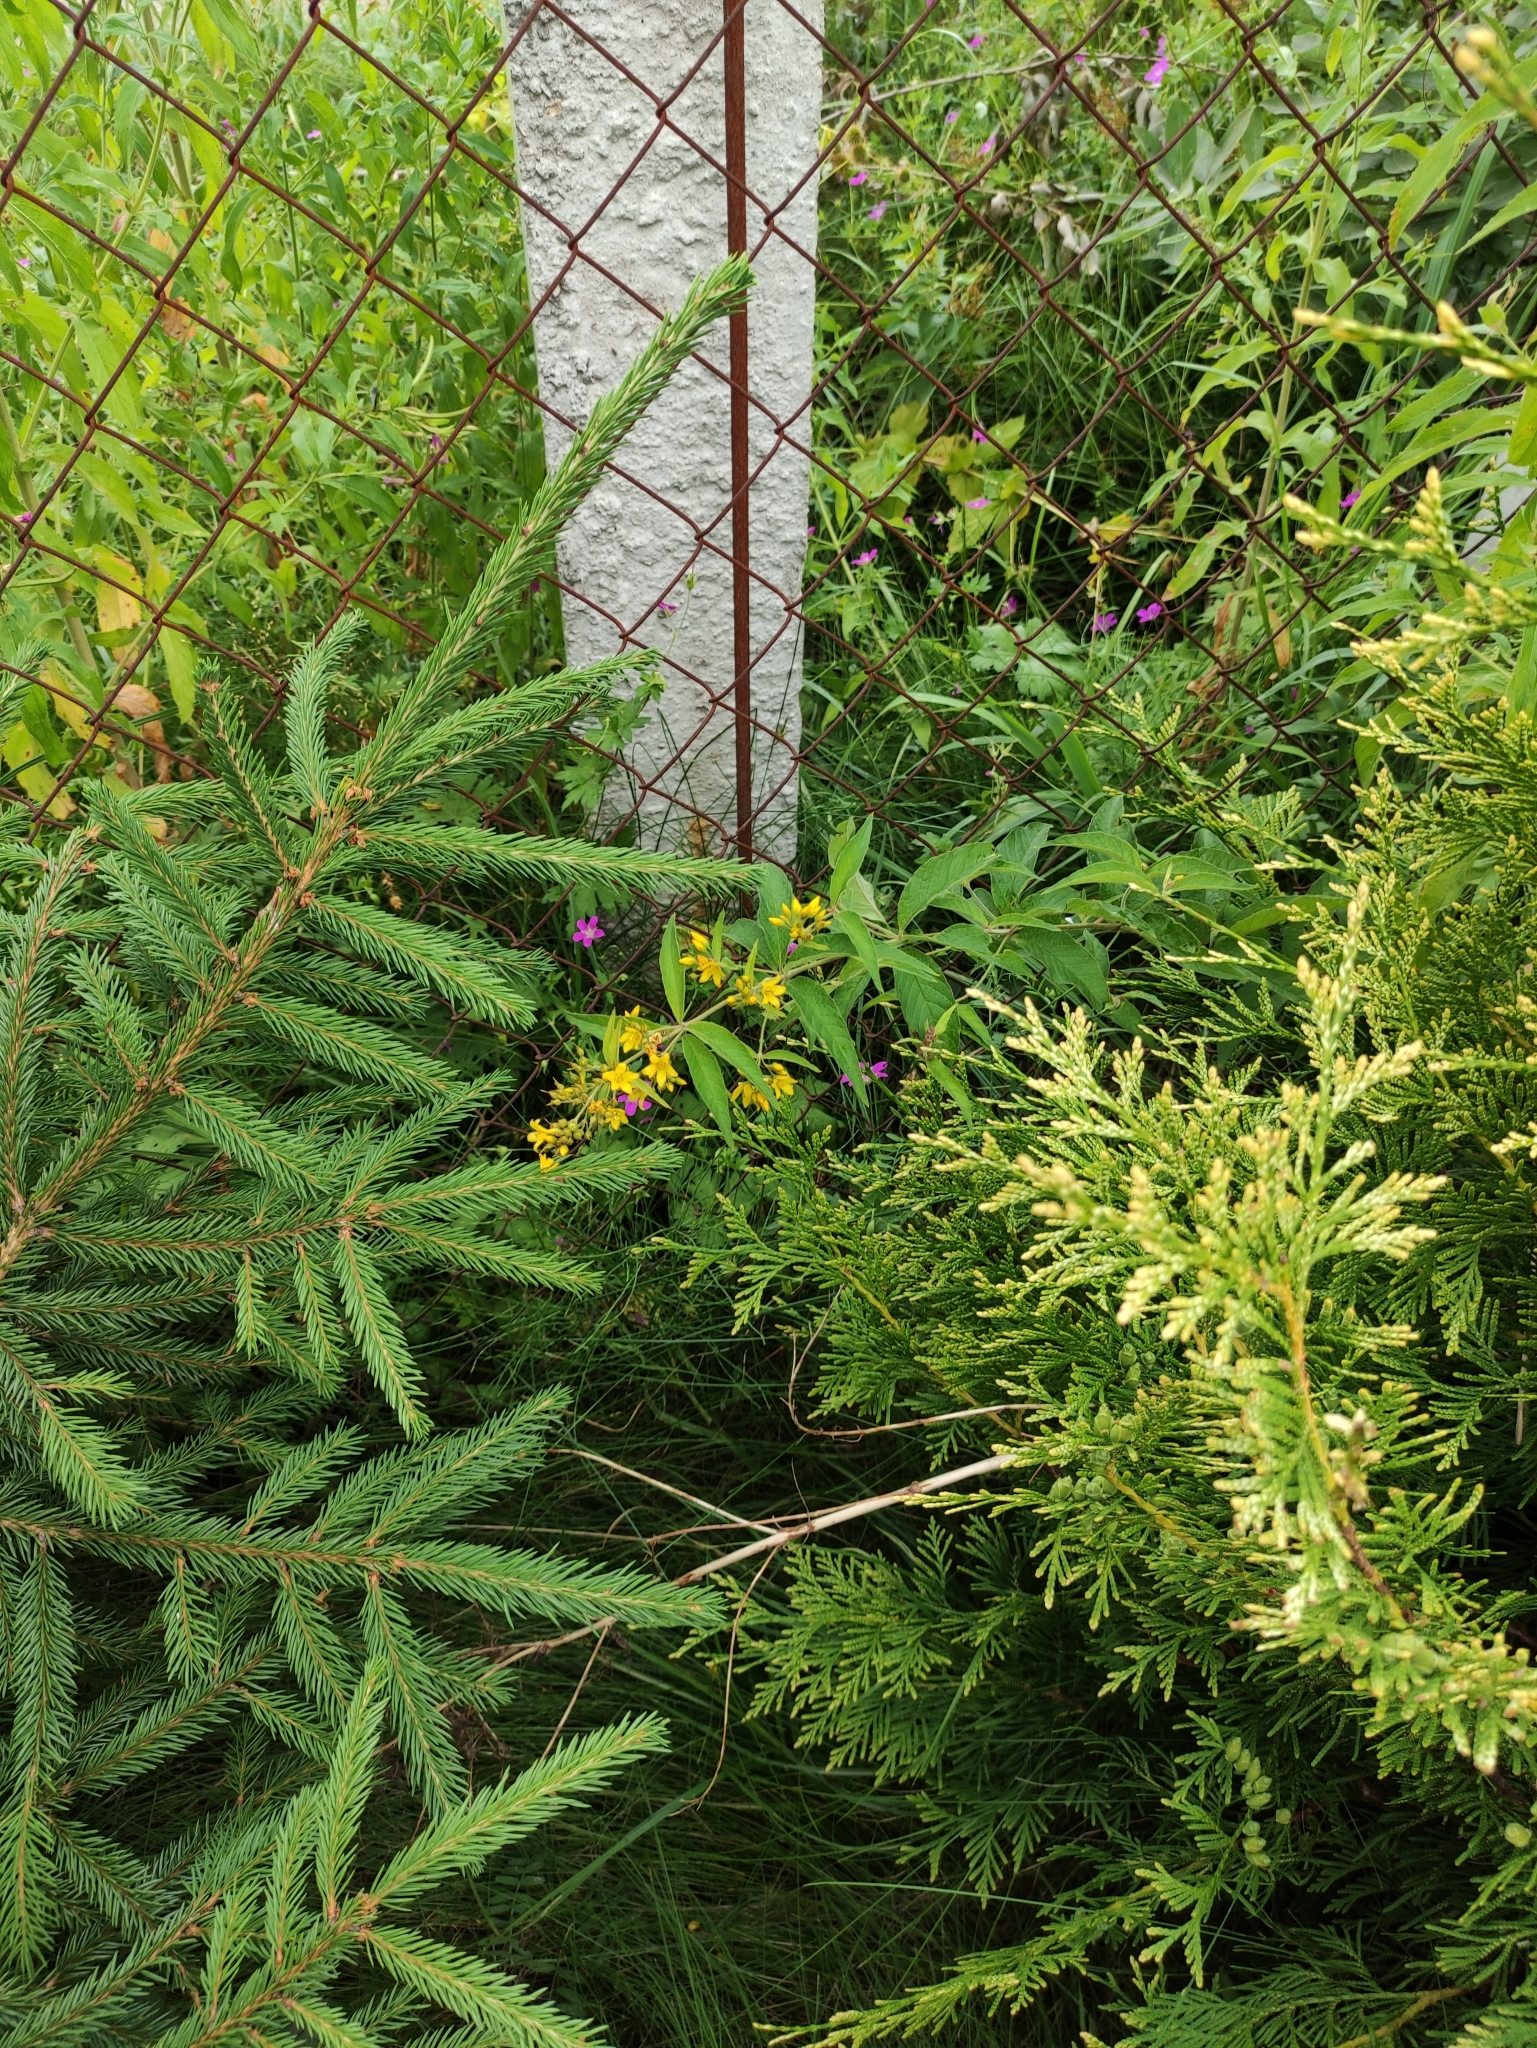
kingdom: Plantae
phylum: Tracheophyta
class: Magnoliopsida
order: Ericales
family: Primulaceae
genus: Lysimachia
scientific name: Lysimachia vulgaris
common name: Yellow loosestrife
